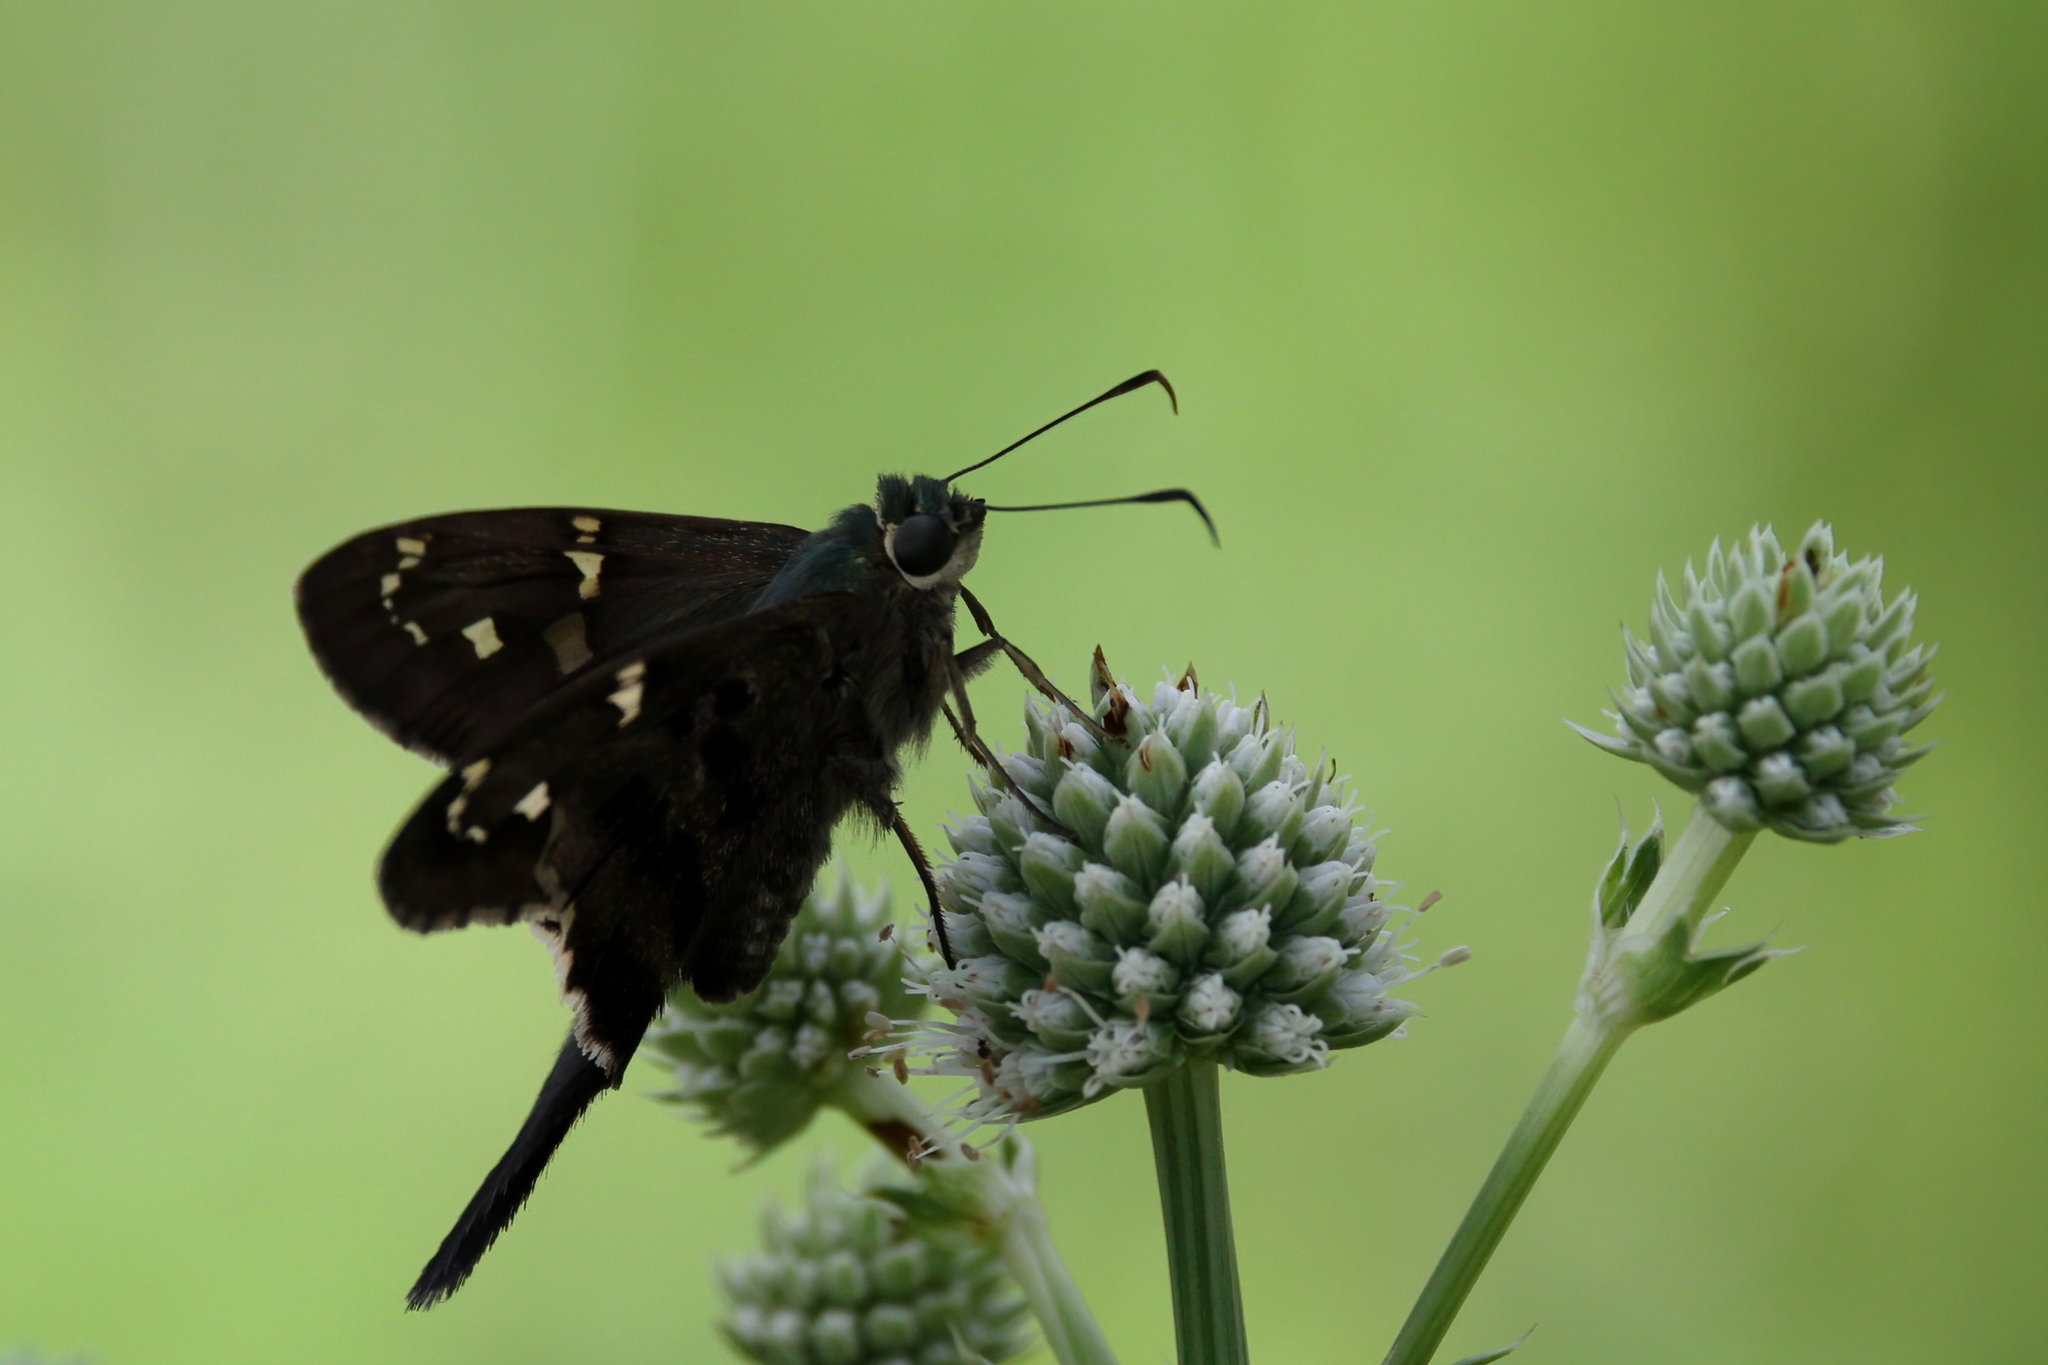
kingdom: Animalia
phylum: Arthropoda
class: Insecta
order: Lepidoptera
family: Hesperiidae
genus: Urbanus
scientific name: Urbanus proteus
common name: Long-tailed skipper
